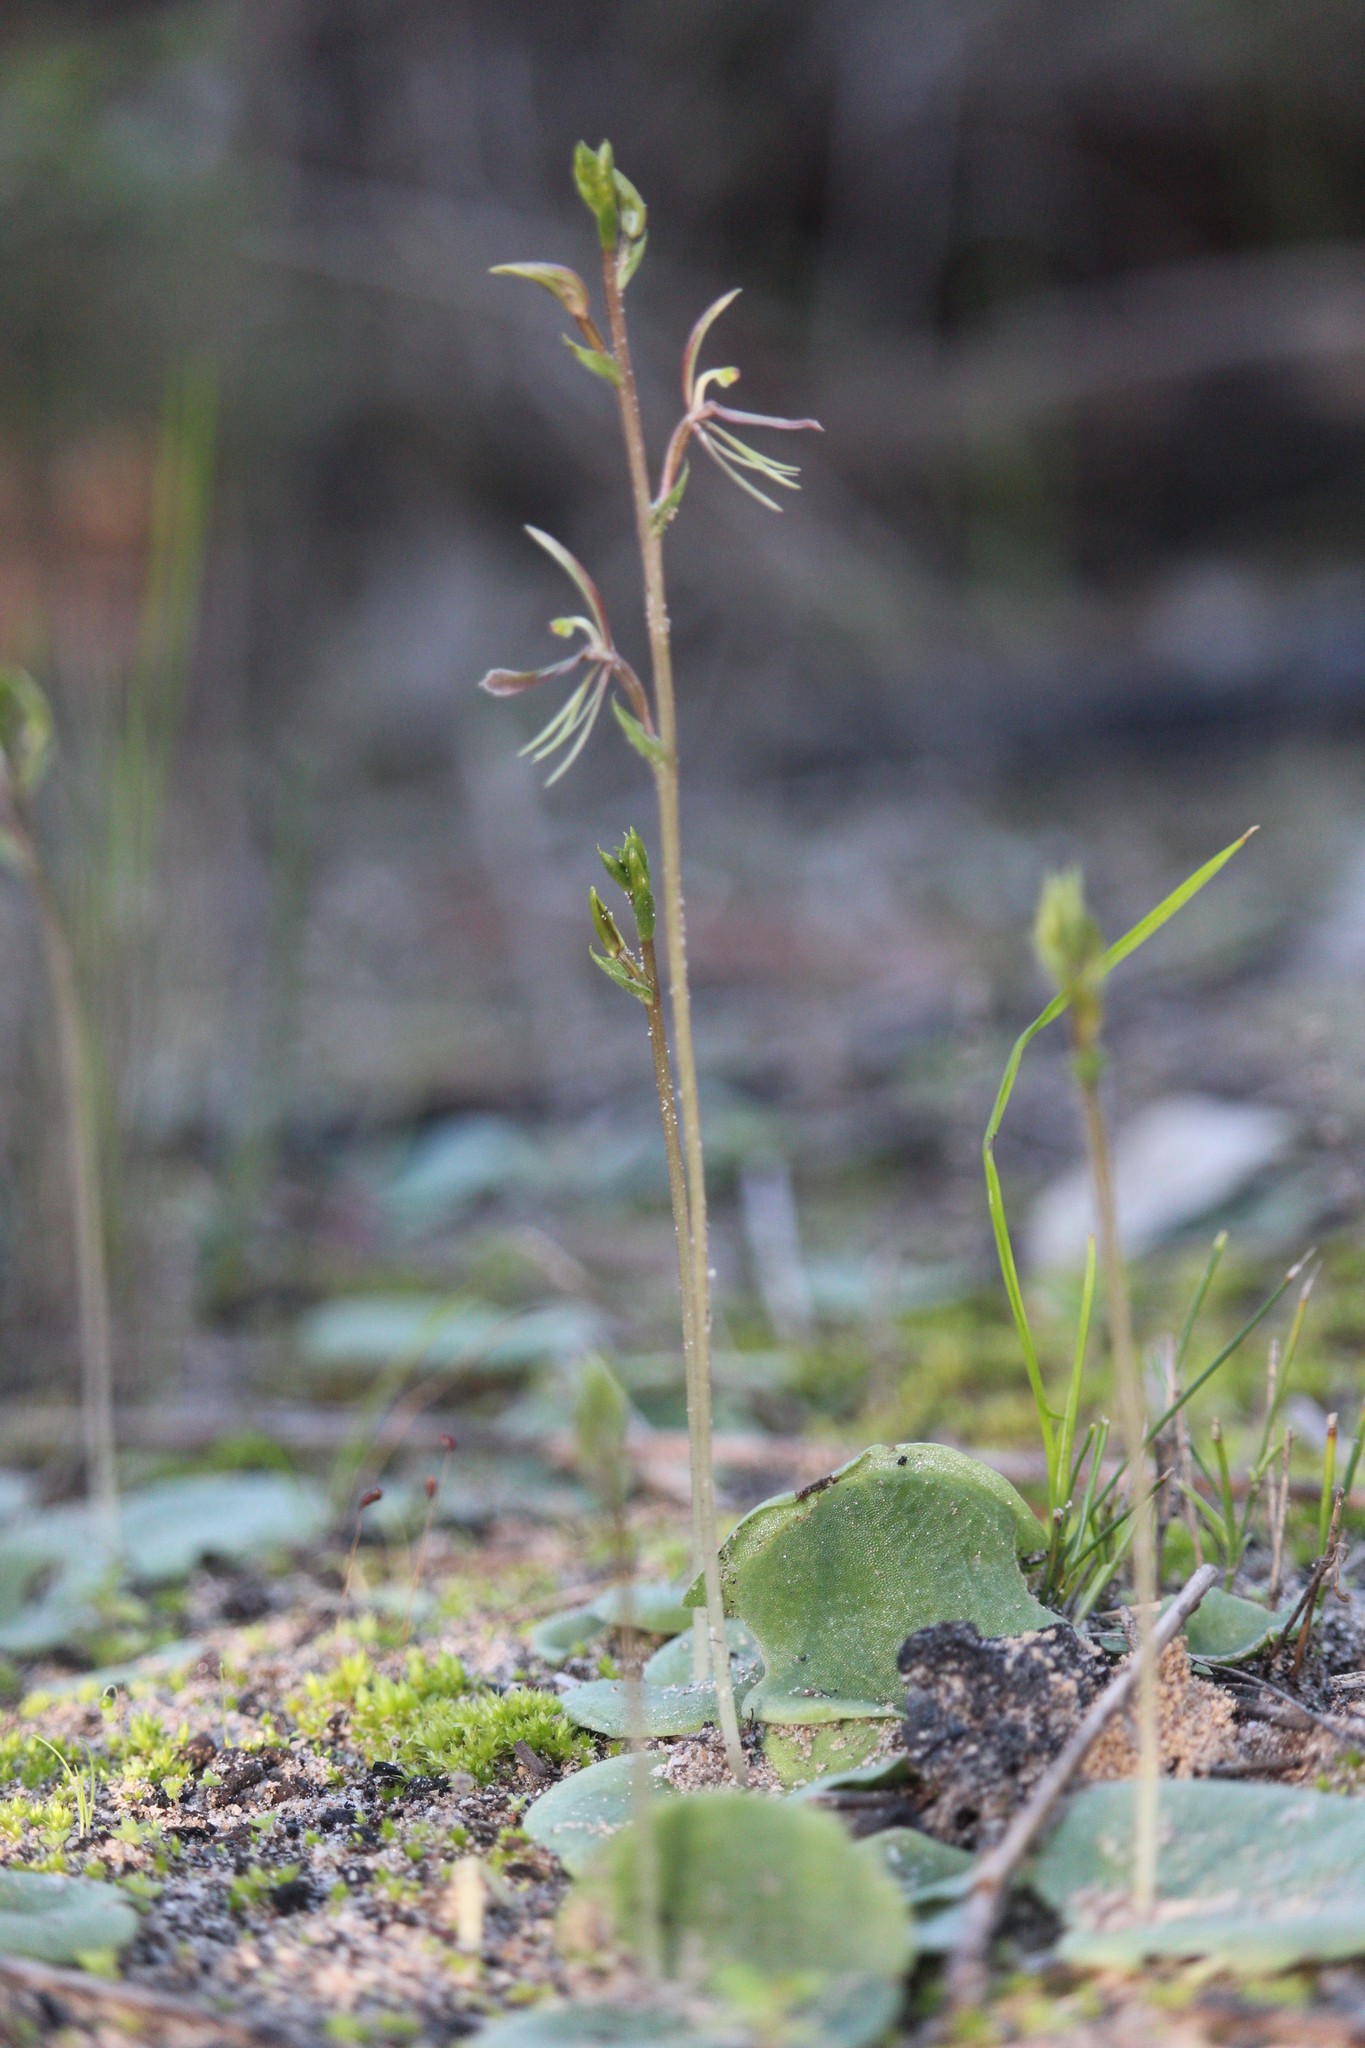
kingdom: Plantae
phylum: Tracheophyta
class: Liliopsida
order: Asparagales
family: Orchidaceae
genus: Cyrtostylis
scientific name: Cyrtostylis huegelii
